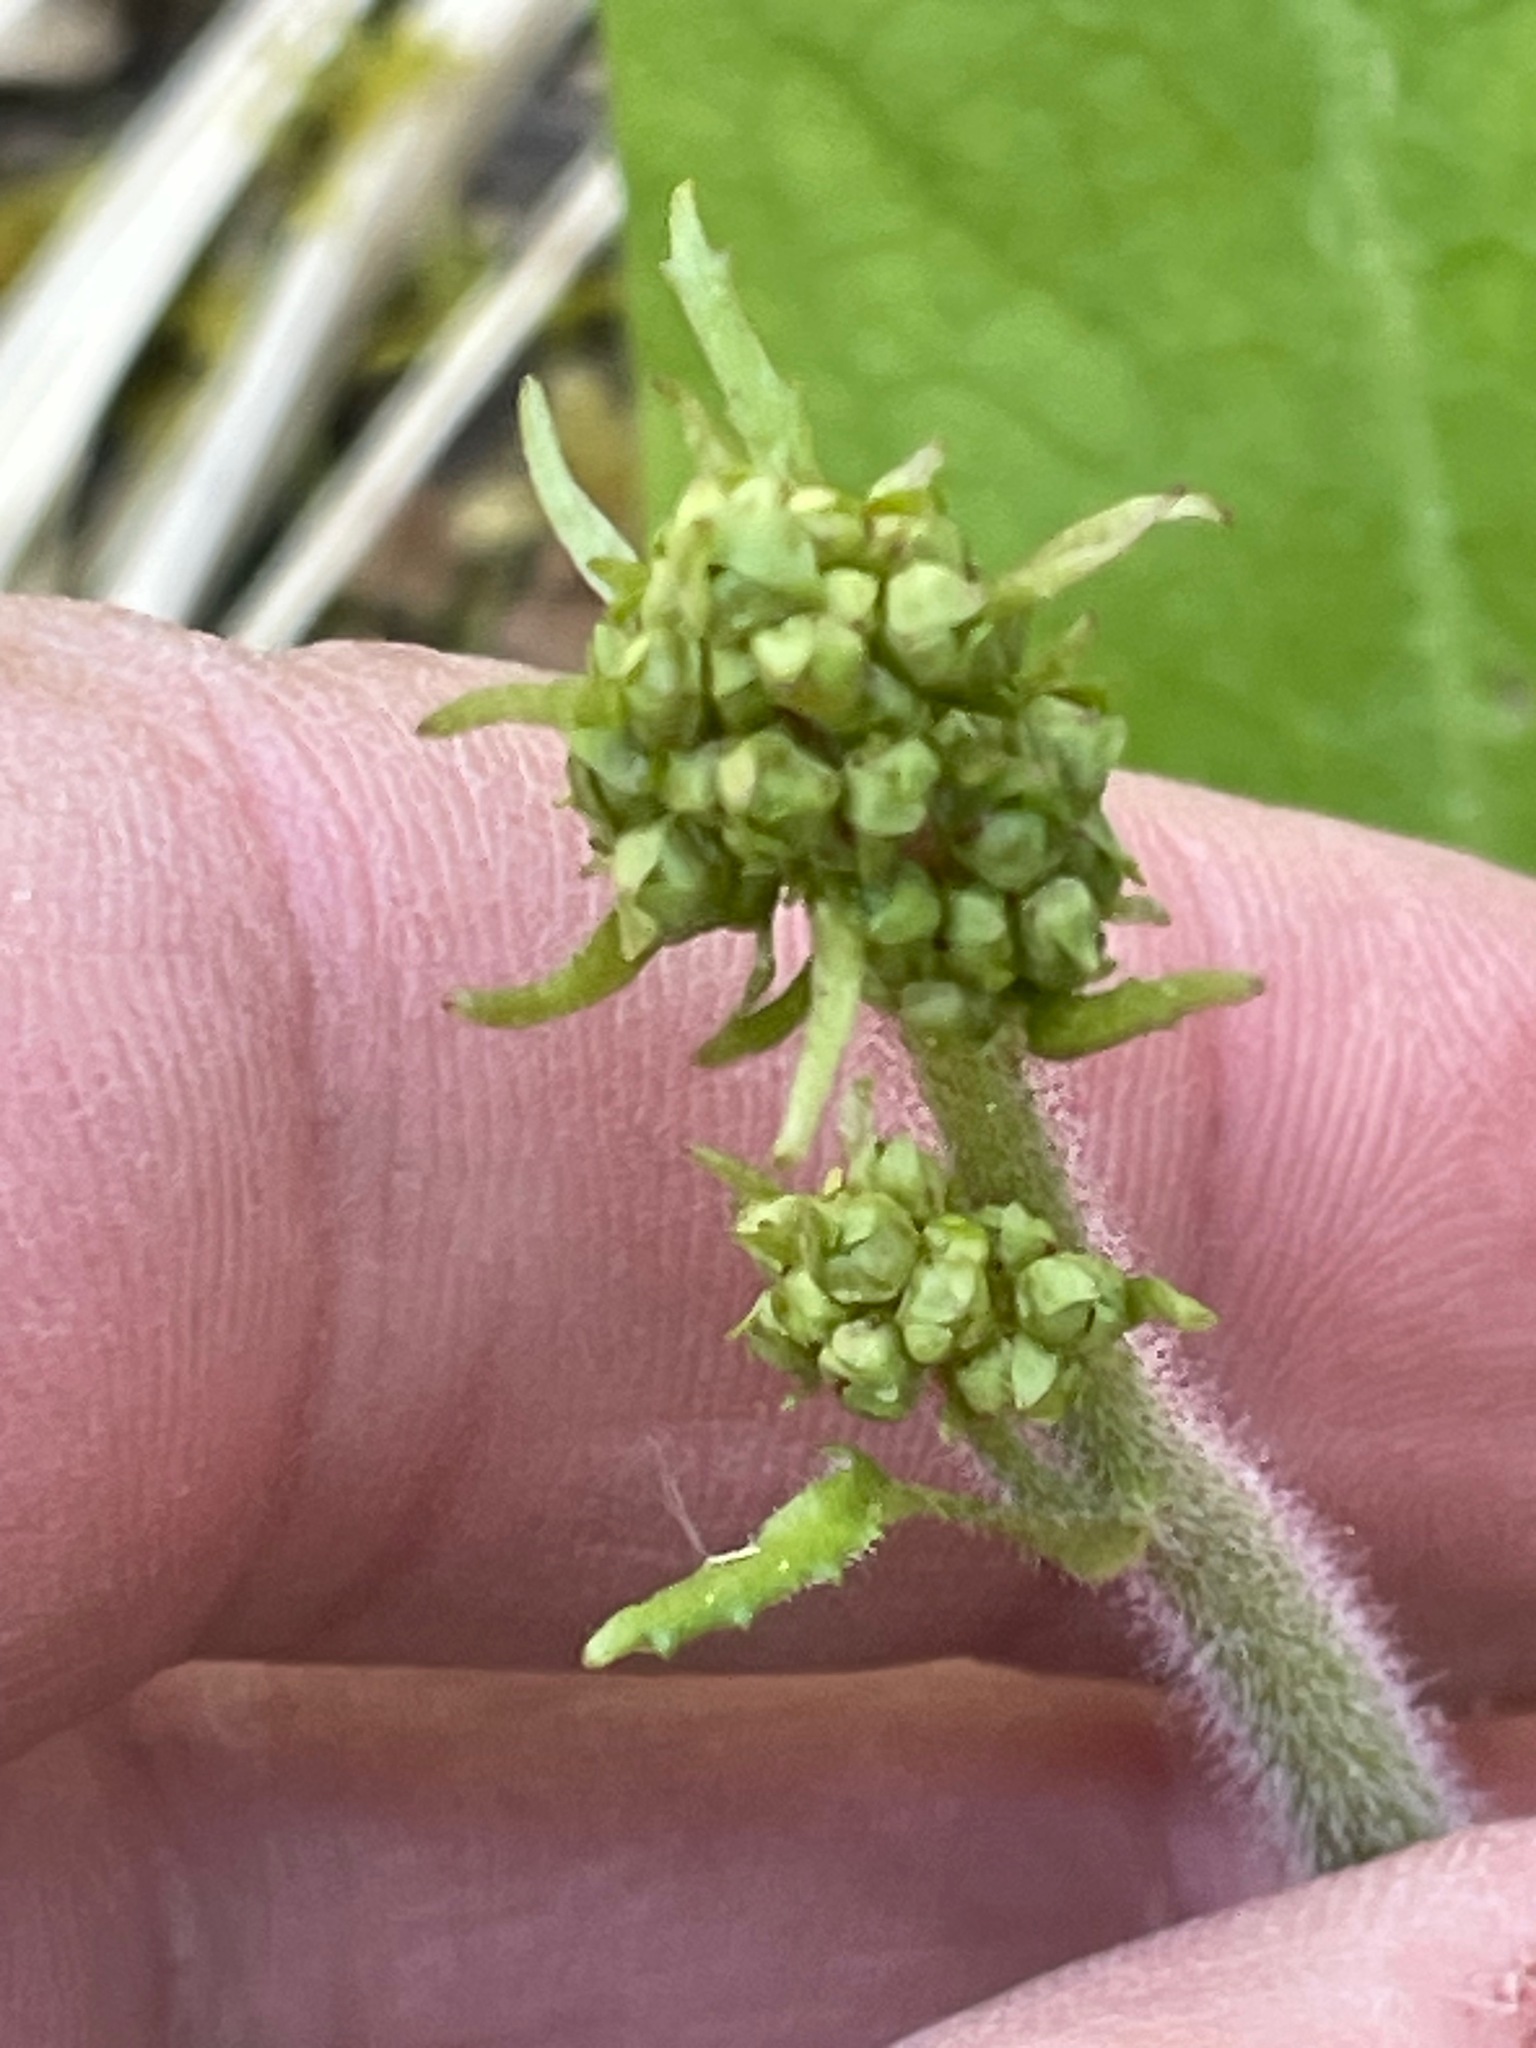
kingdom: Plantae
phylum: Tracheophyta
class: Magnoliopsida
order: Saxifragales
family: Saxifragaceae
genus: Micranthes
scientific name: Micranthes pensylvanica
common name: Marsh saxifrage
